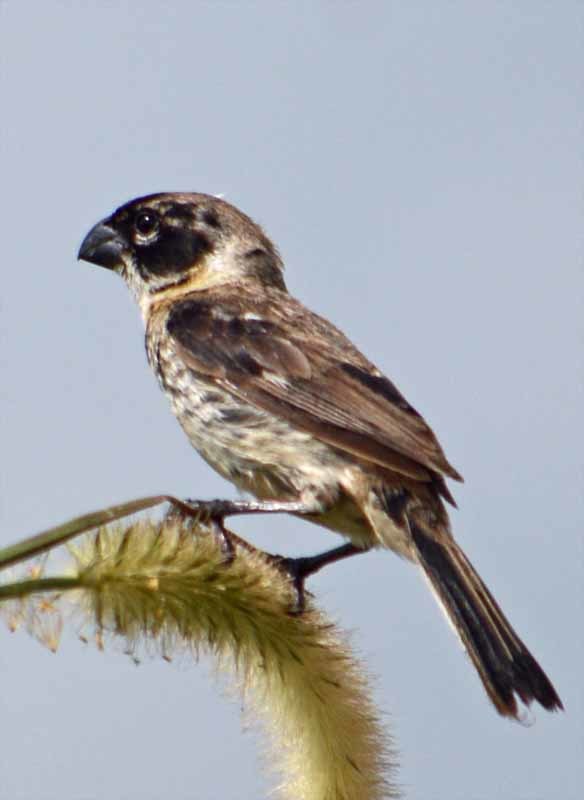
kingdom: Animalia
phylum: Chordata
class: Aves
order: Passeriformes
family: Thraupidae
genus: Sporophila
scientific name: Sporophila morelleti
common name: Morelet's seedeater
